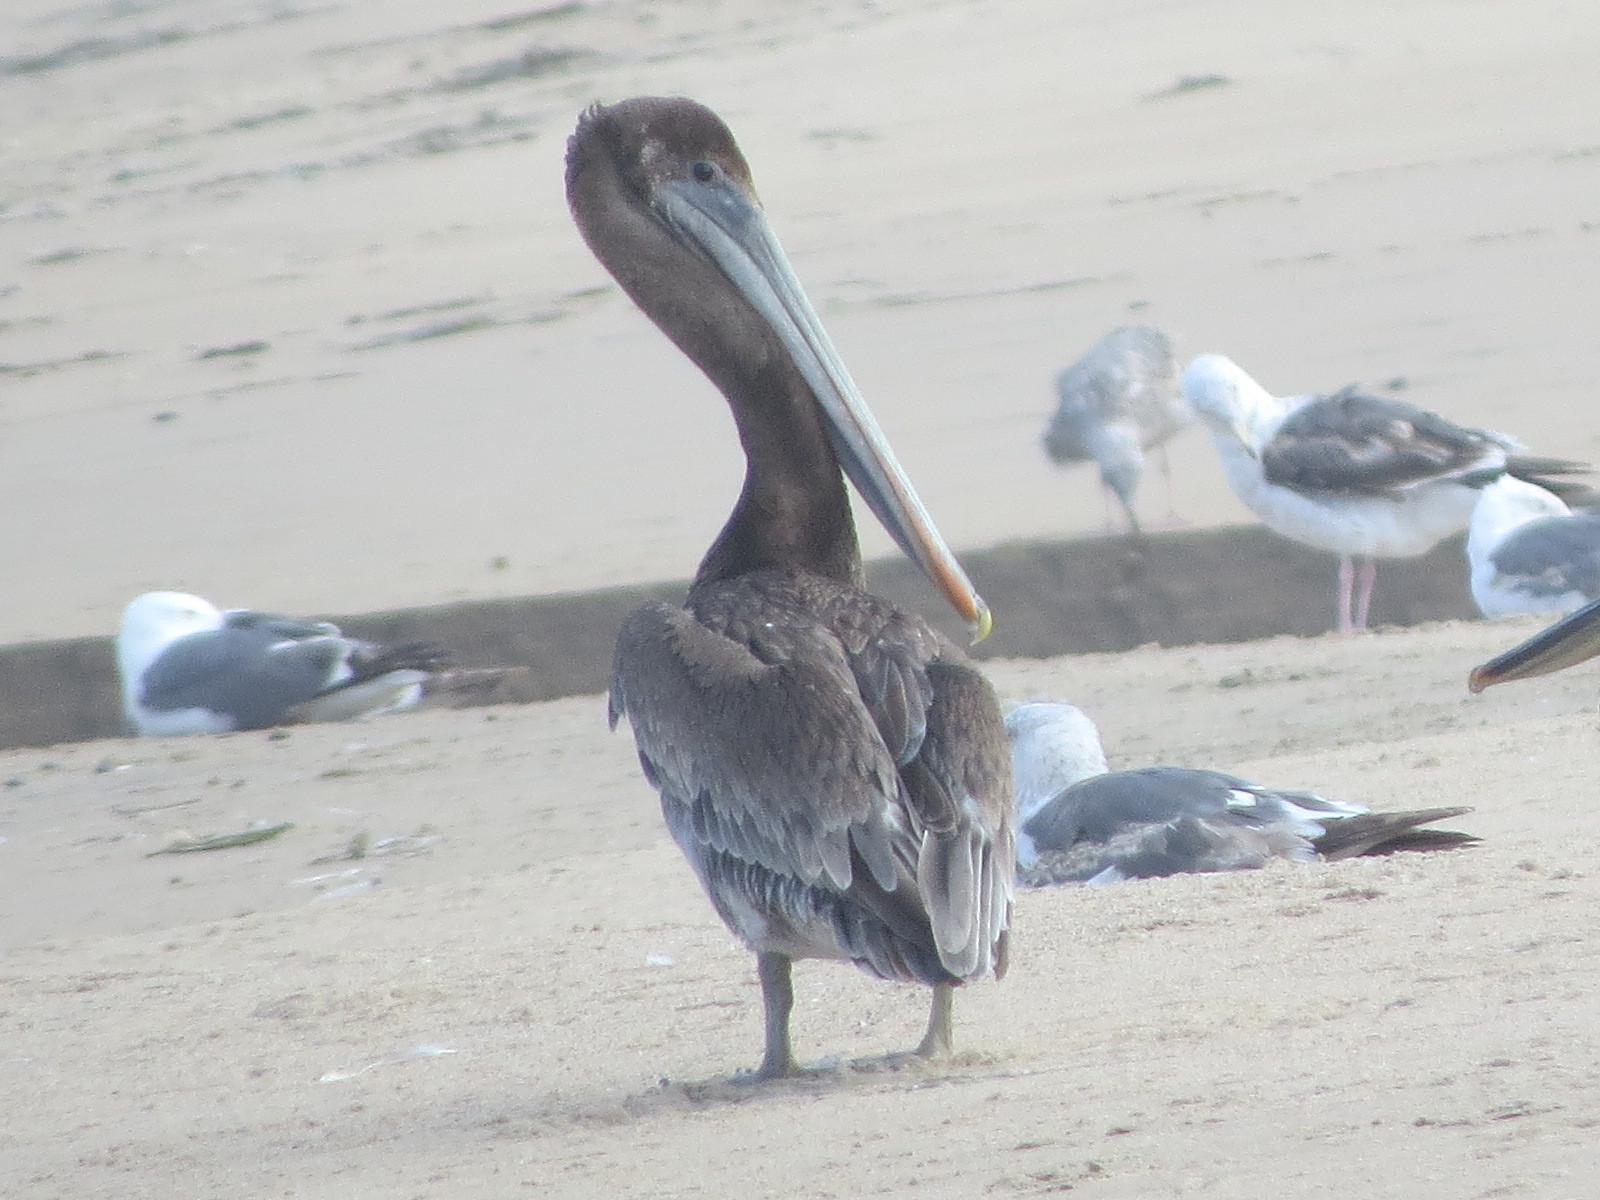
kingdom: Animalia
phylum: Chordata
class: Aves
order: Pelecaniformes
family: Pelecanidae
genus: Pelecanus
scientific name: Pelecanus occidentalis
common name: Brown pelican
